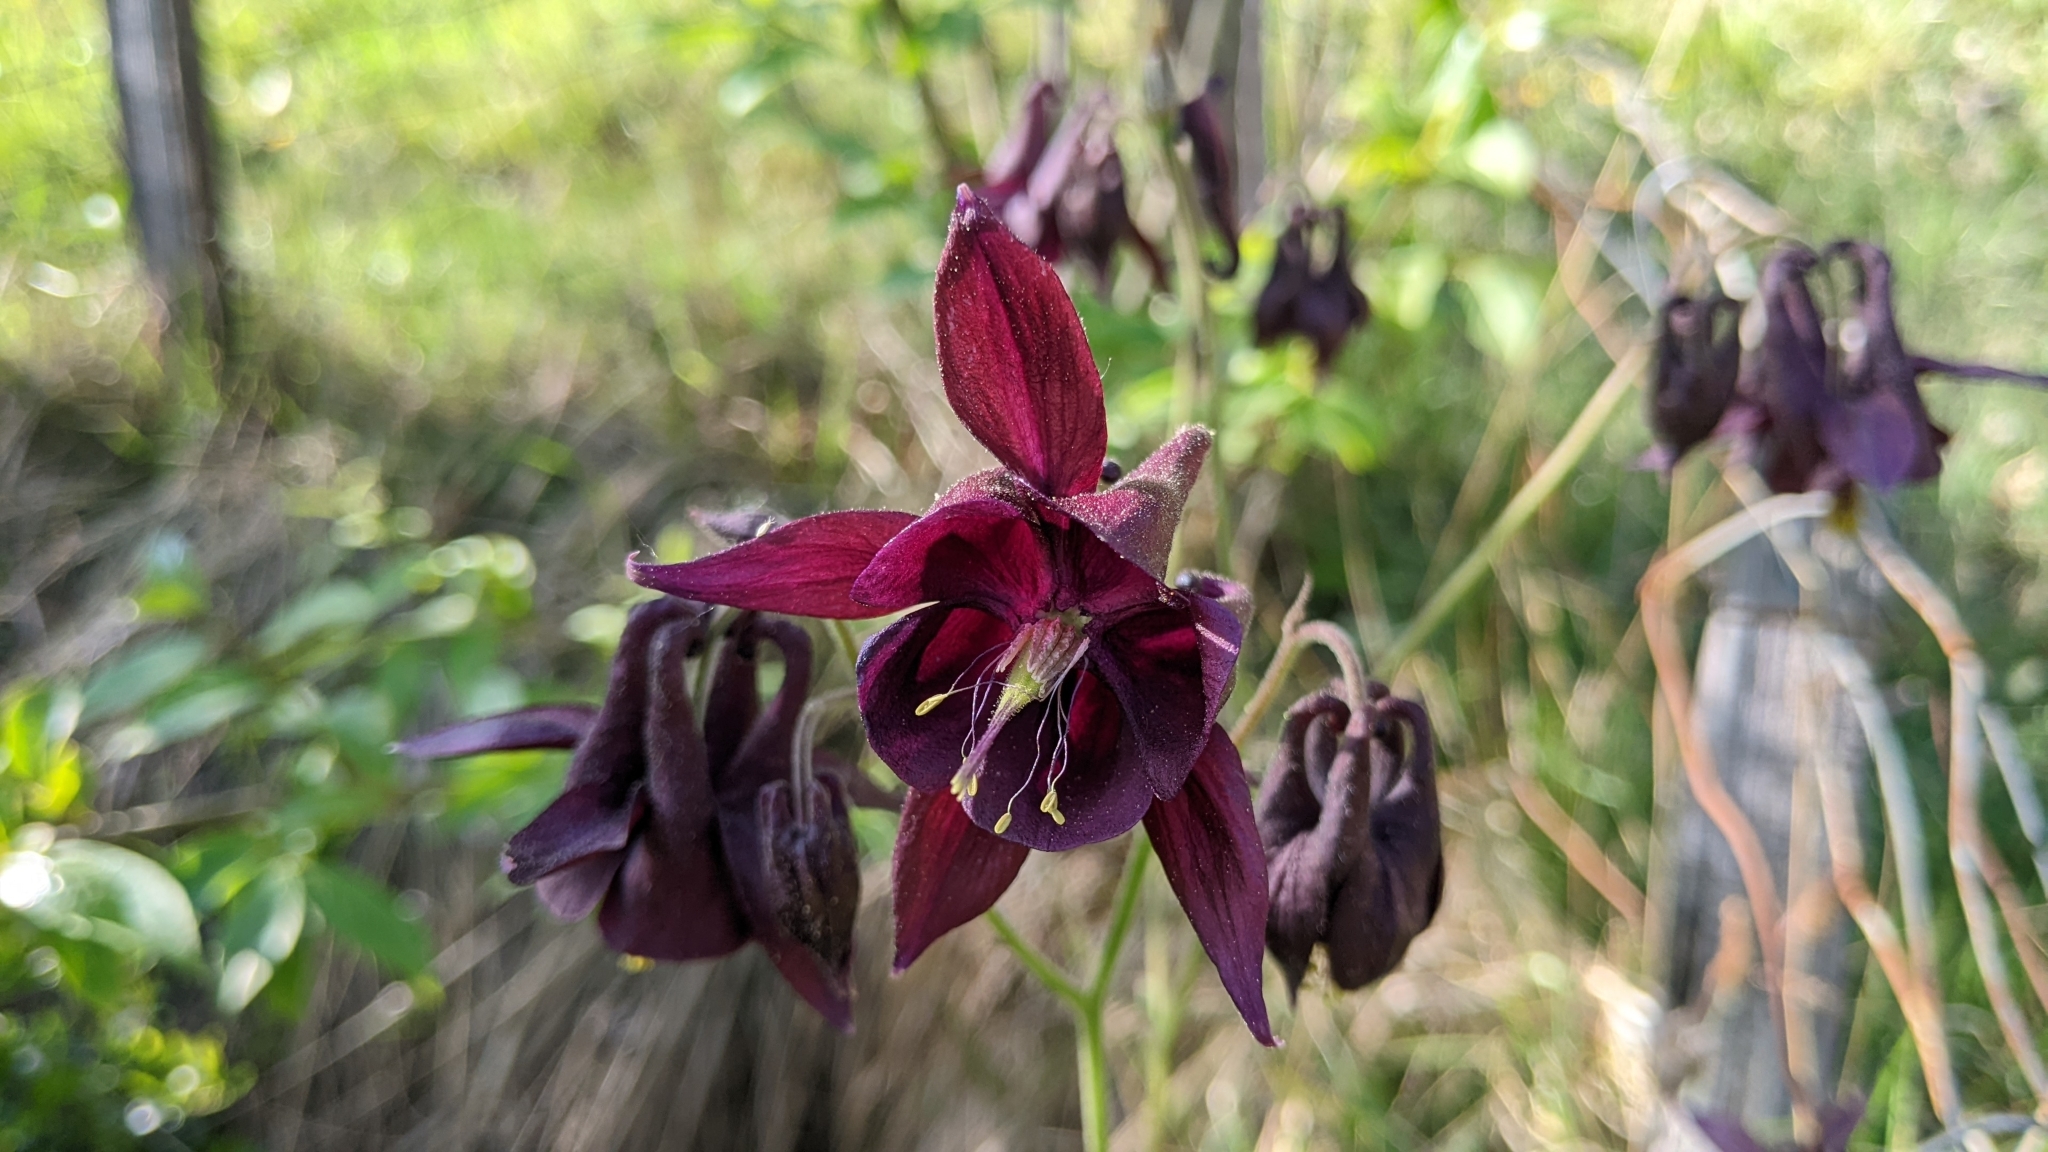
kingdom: Plantae
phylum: Tracheophyta
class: Magnoliopsida
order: Ranunculales
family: Ranunculaceae
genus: Aquilegia
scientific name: Aquilegia atrata
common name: Dark columbine
